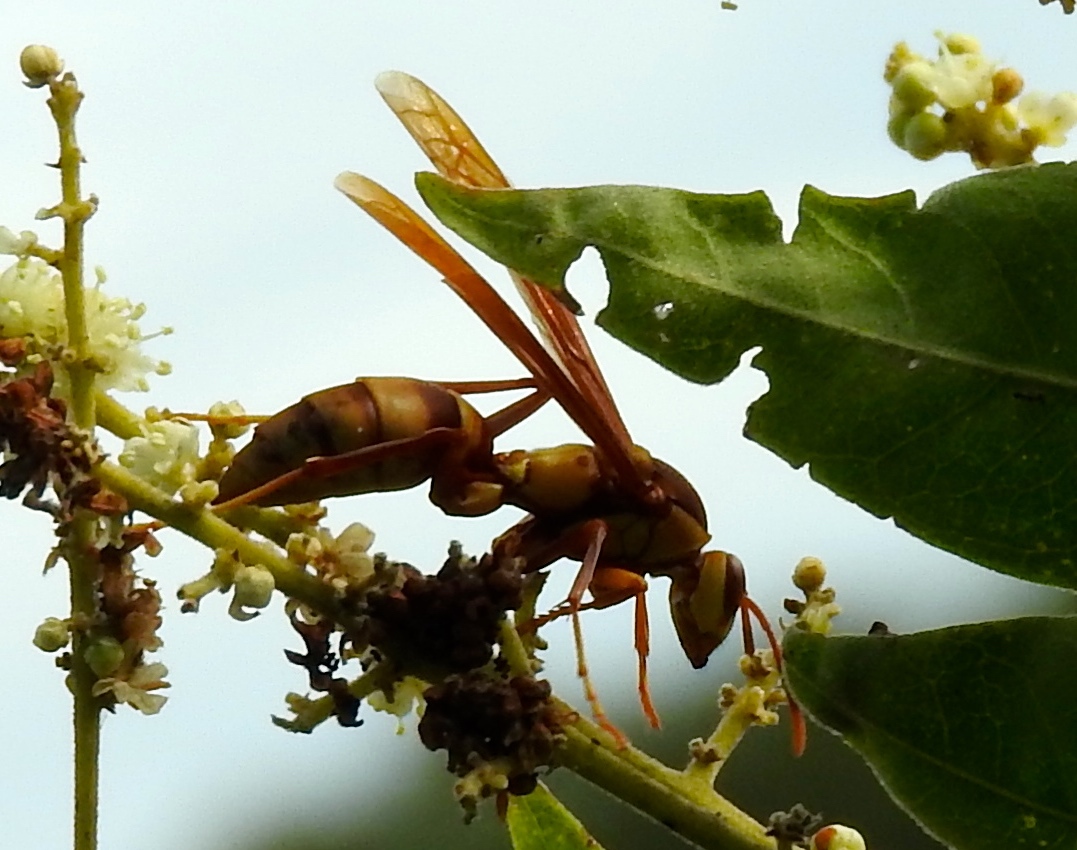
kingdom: Animalia
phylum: Arthropoda
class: Insecta
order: Hymenoptera
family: Eumenidae
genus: Polistes
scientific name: Polistes carnifex
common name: Paper wasp
